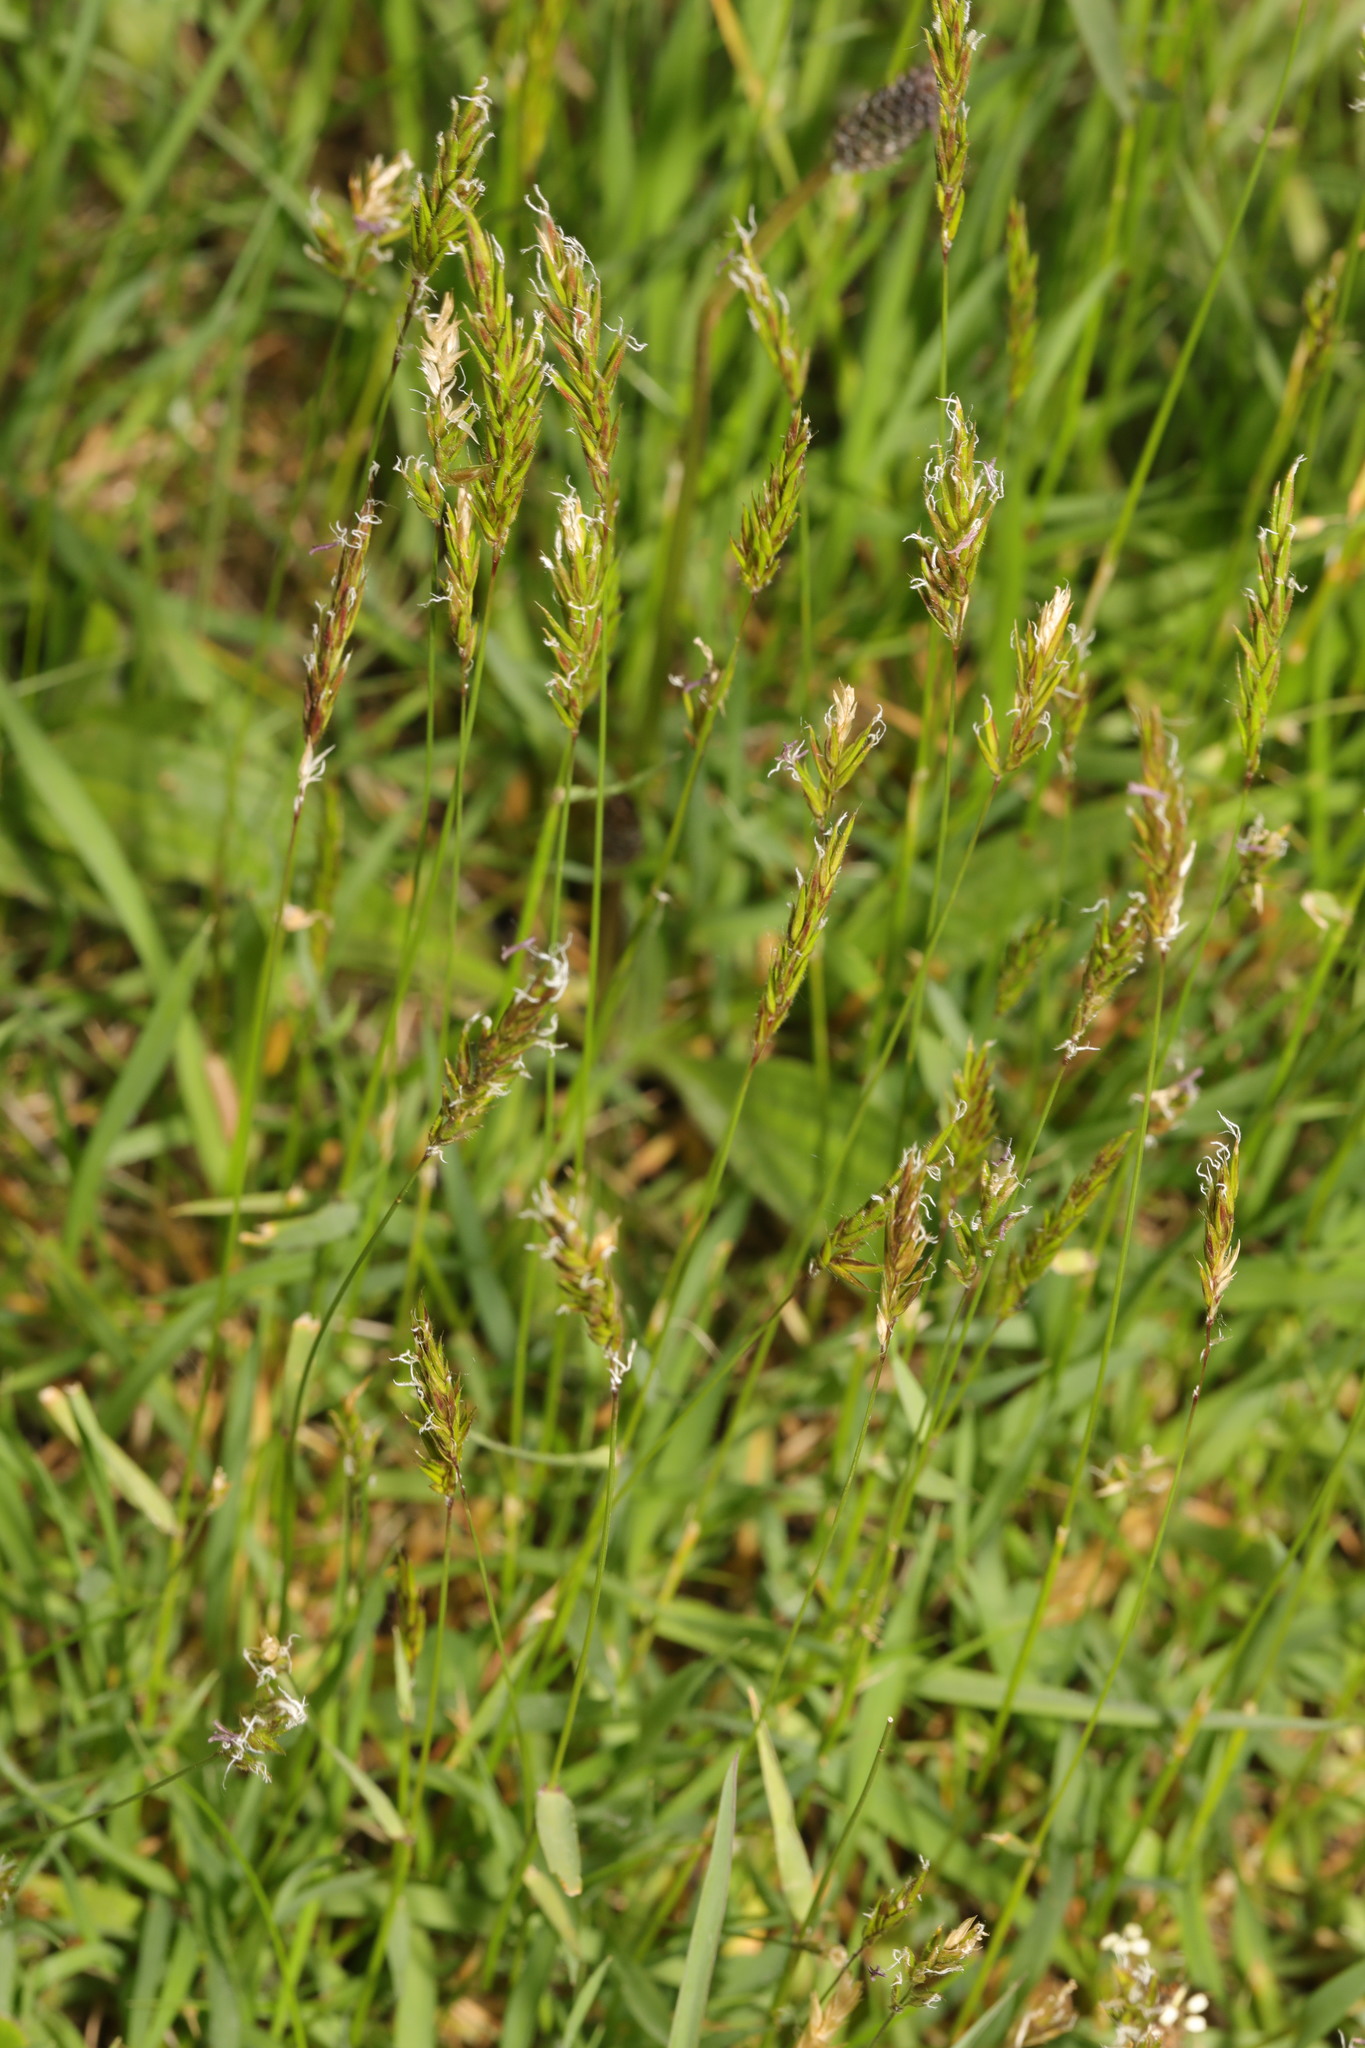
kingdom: Plantae
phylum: Tracheophyta
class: Liliopsida
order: Poales
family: Poaceae
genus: Anthoxanthum
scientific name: Anthoxanthum odoratum
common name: Sweet vernalgrass
